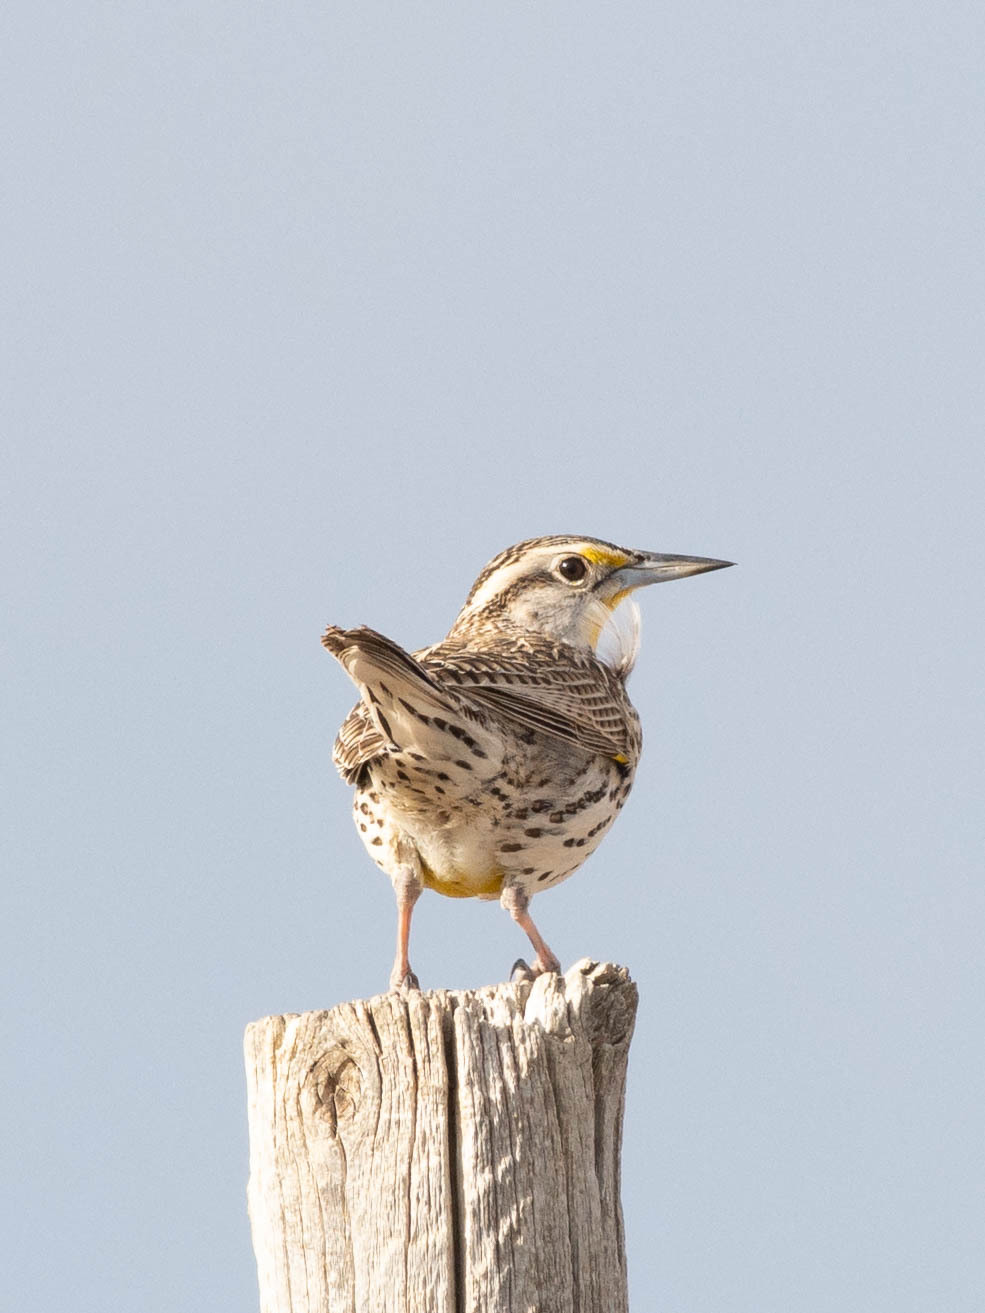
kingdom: Animalia
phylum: Chordata
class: Aves
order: Passeriformes
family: Icteridae
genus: Sturnella
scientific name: Sturnella neglecta
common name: Western meadowlark
